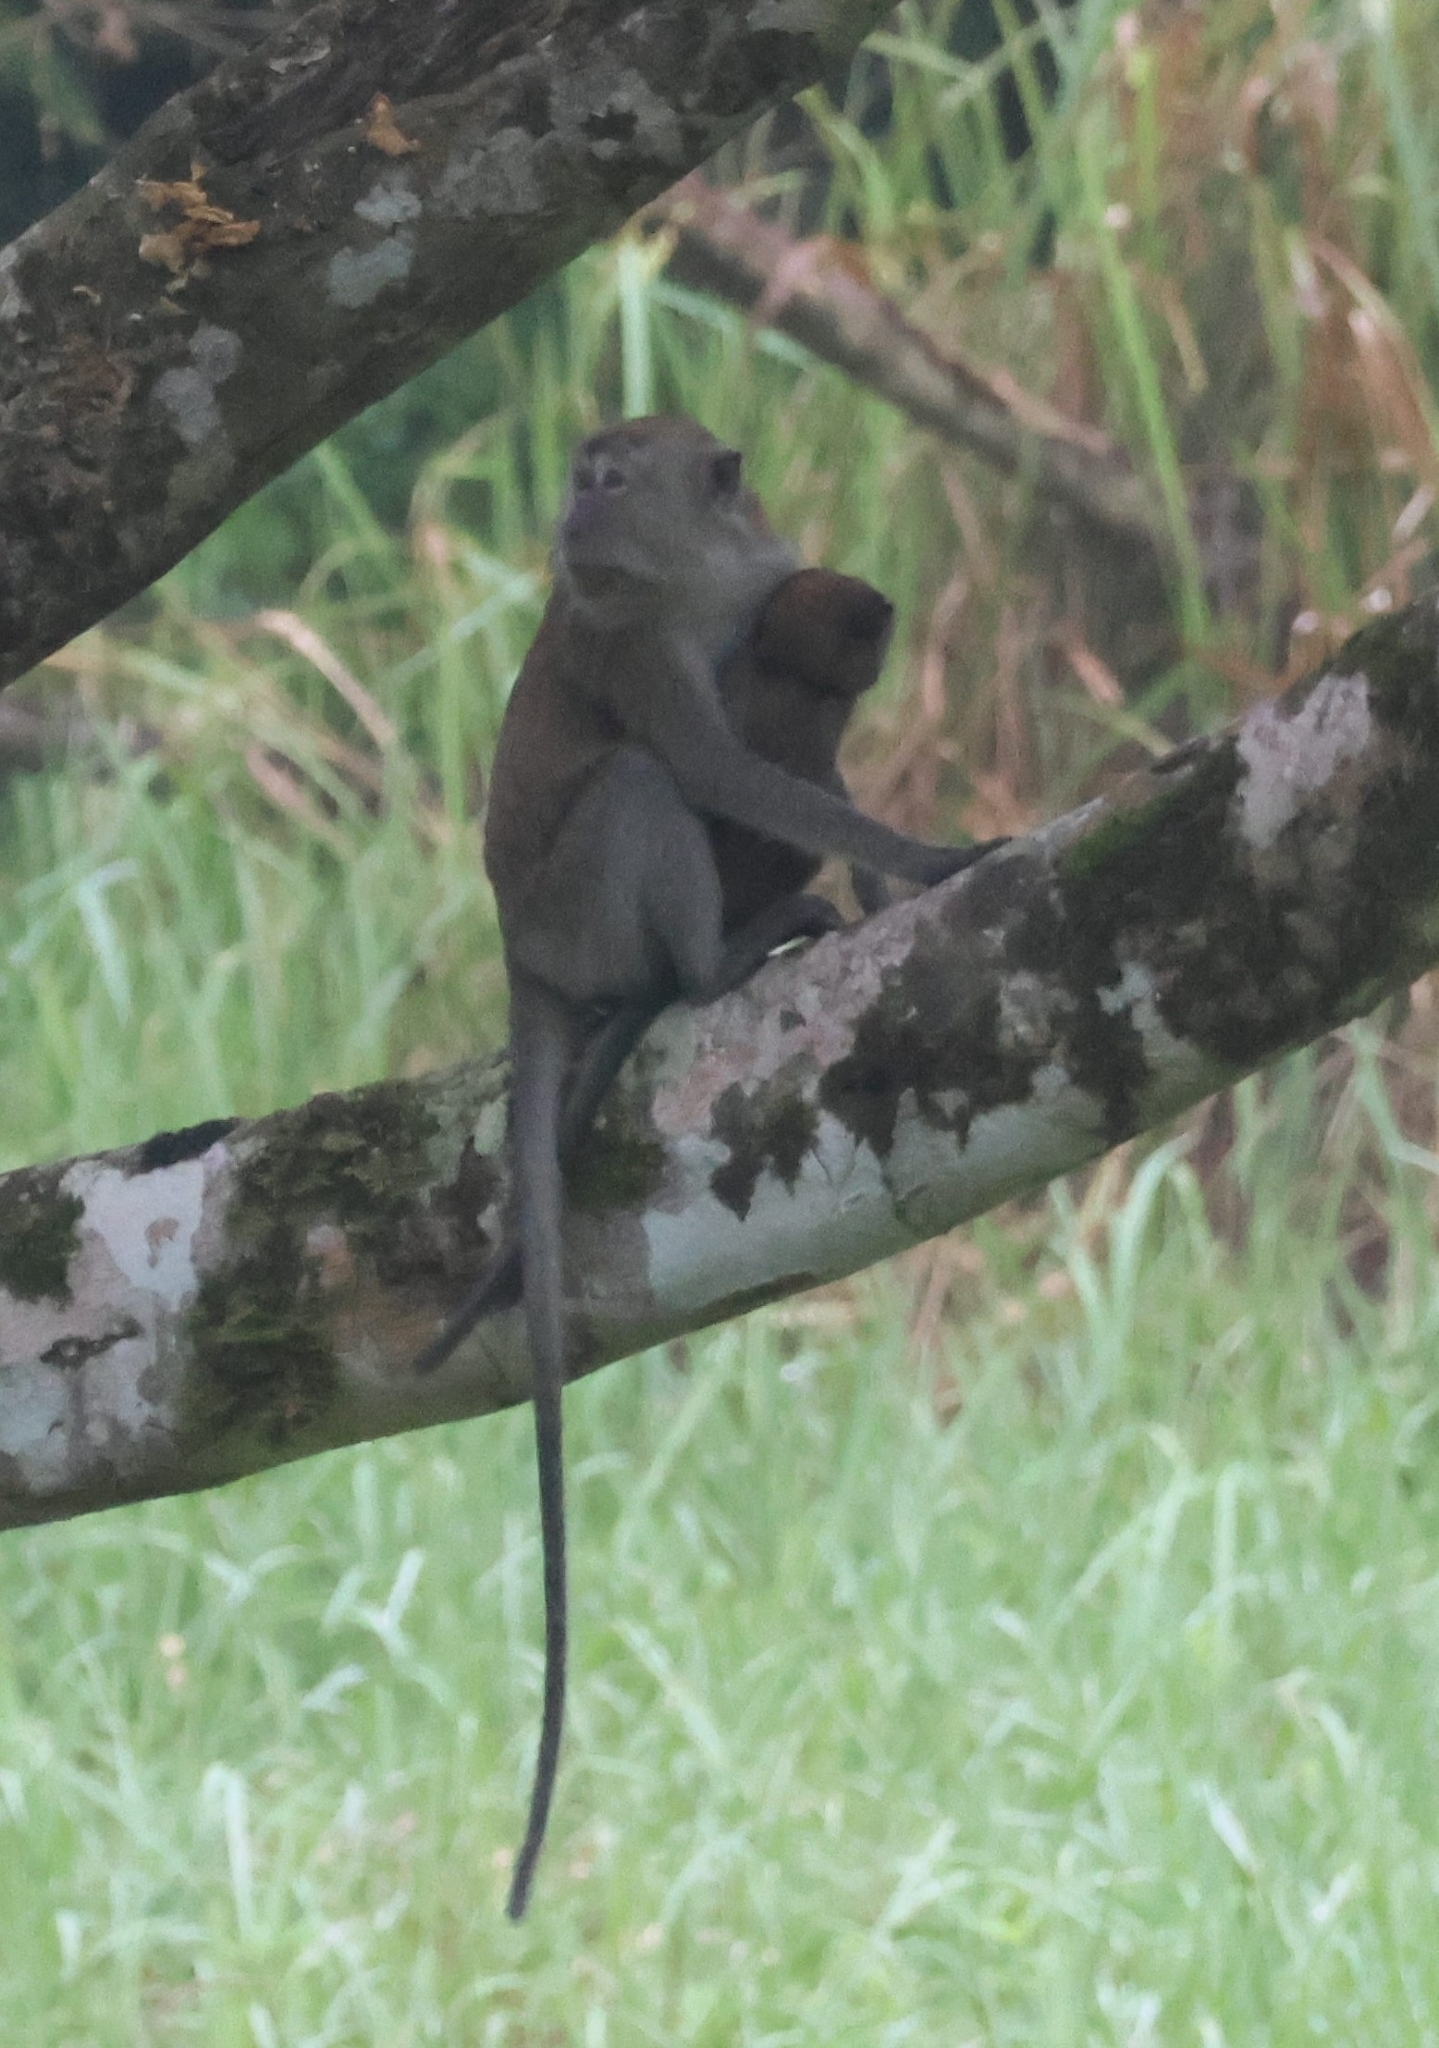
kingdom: Animalia
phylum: Chordata
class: Mammalia
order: Primates
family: Cercopithecidae
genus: Macaca
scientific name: Macaca fascicularis
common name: Crab-eating macaque
